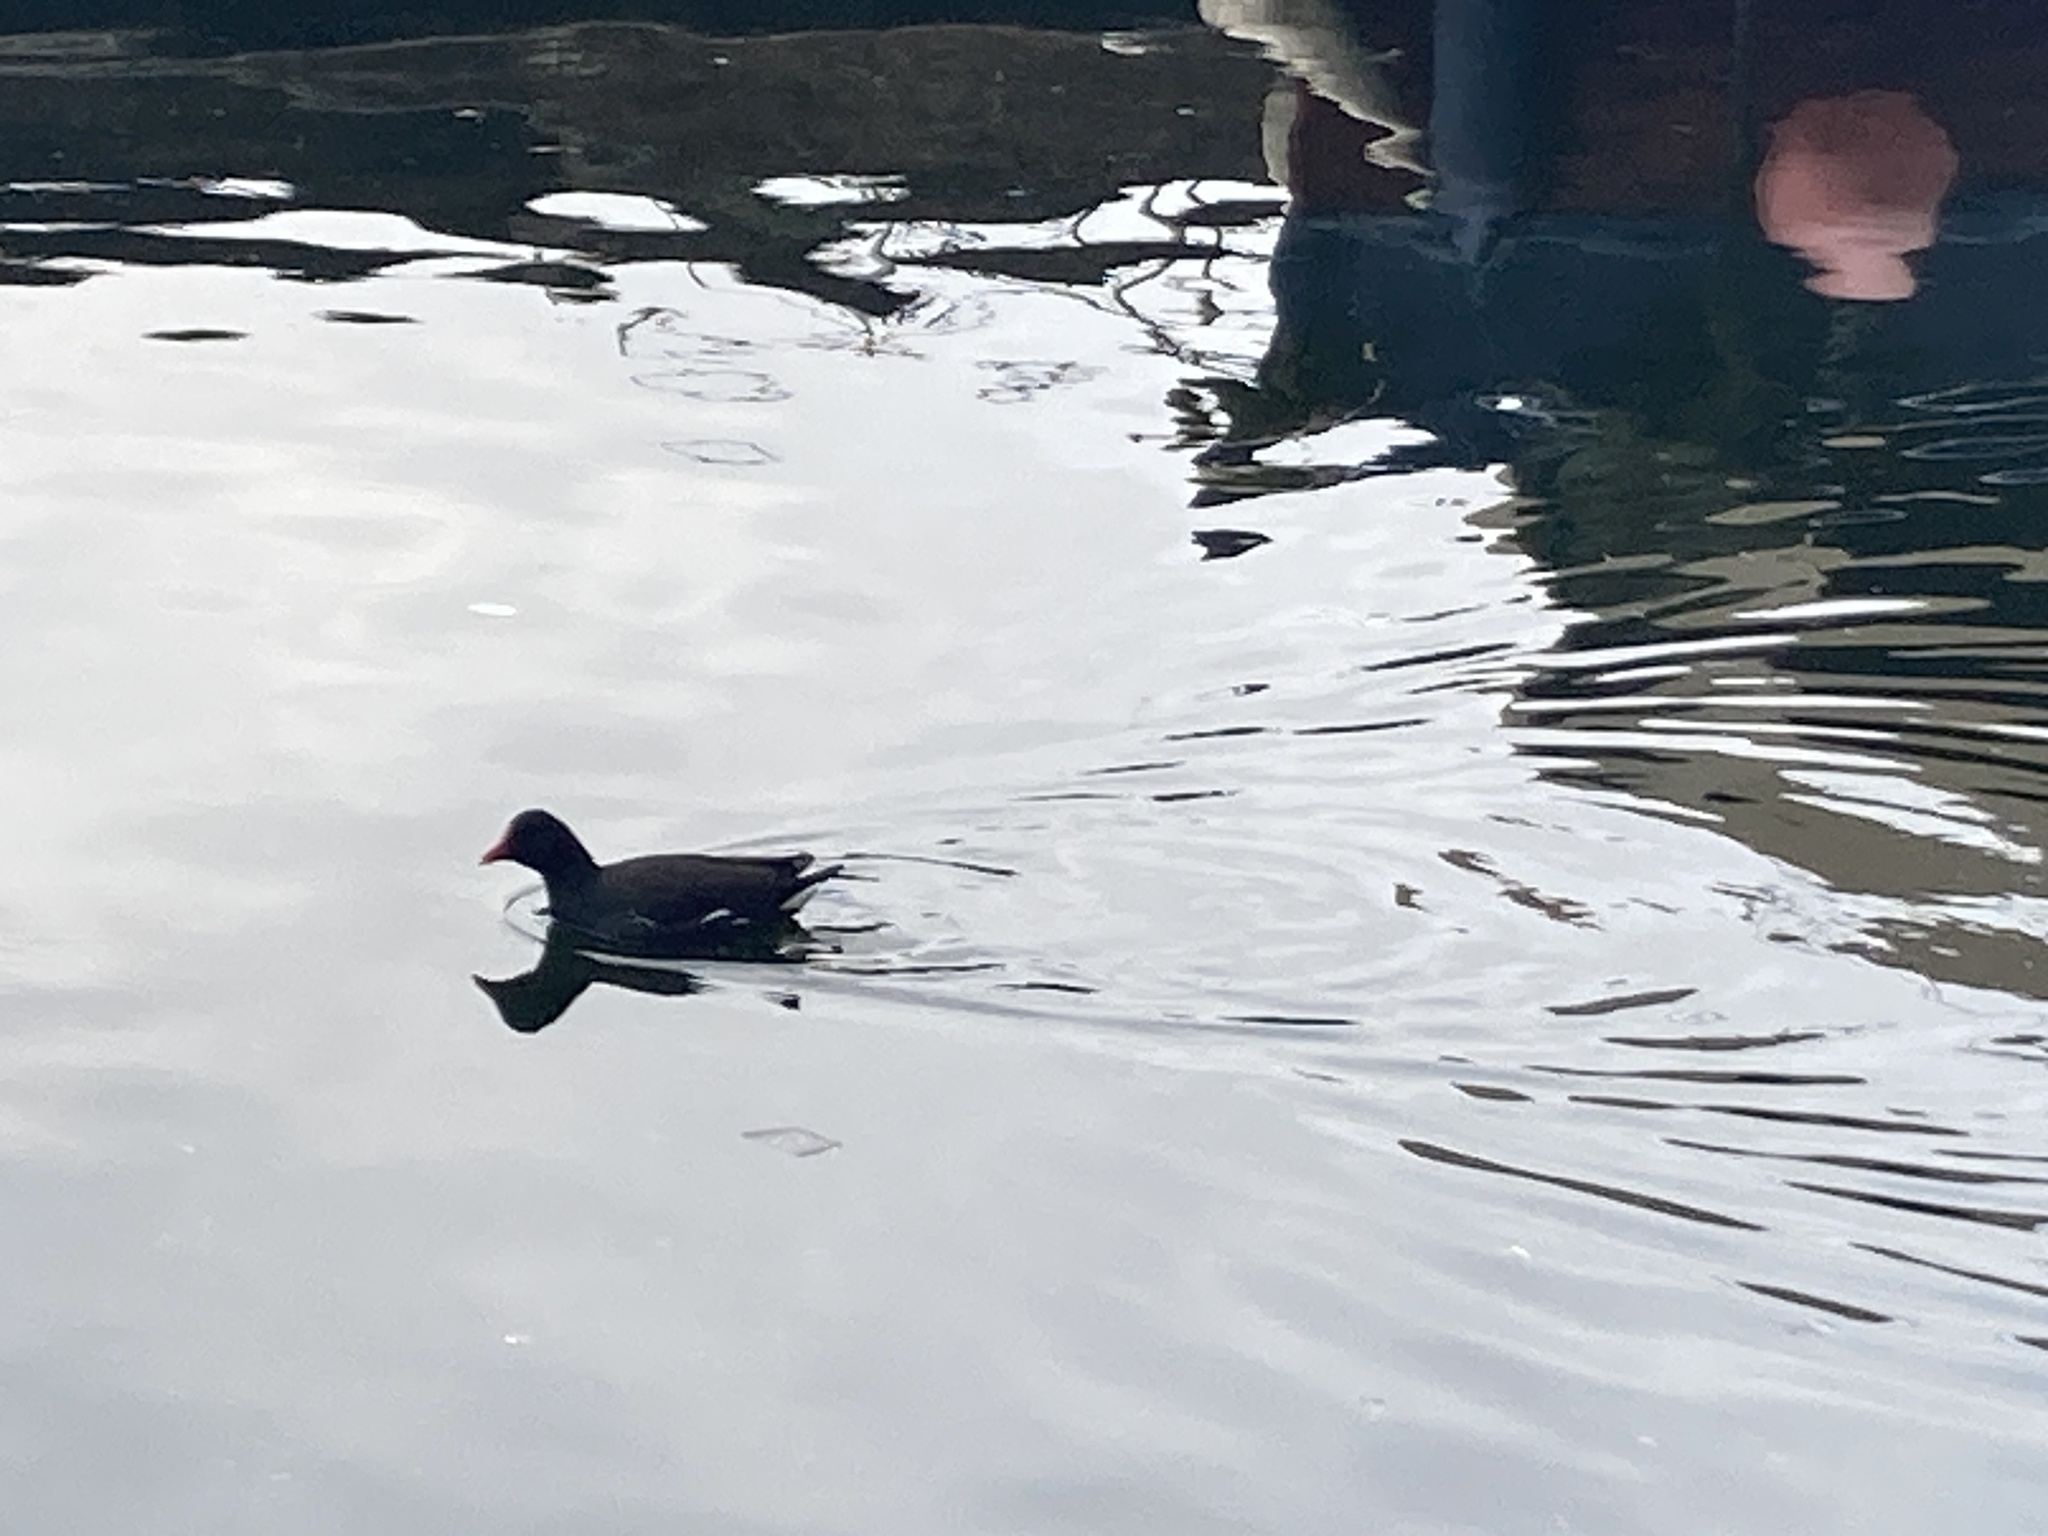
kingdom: Animalia
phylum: Chordata
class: Aves
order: Gruiformes
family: Rallidae
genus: Gallinula
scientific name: Gallinula chloropus
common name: Common moorhen
